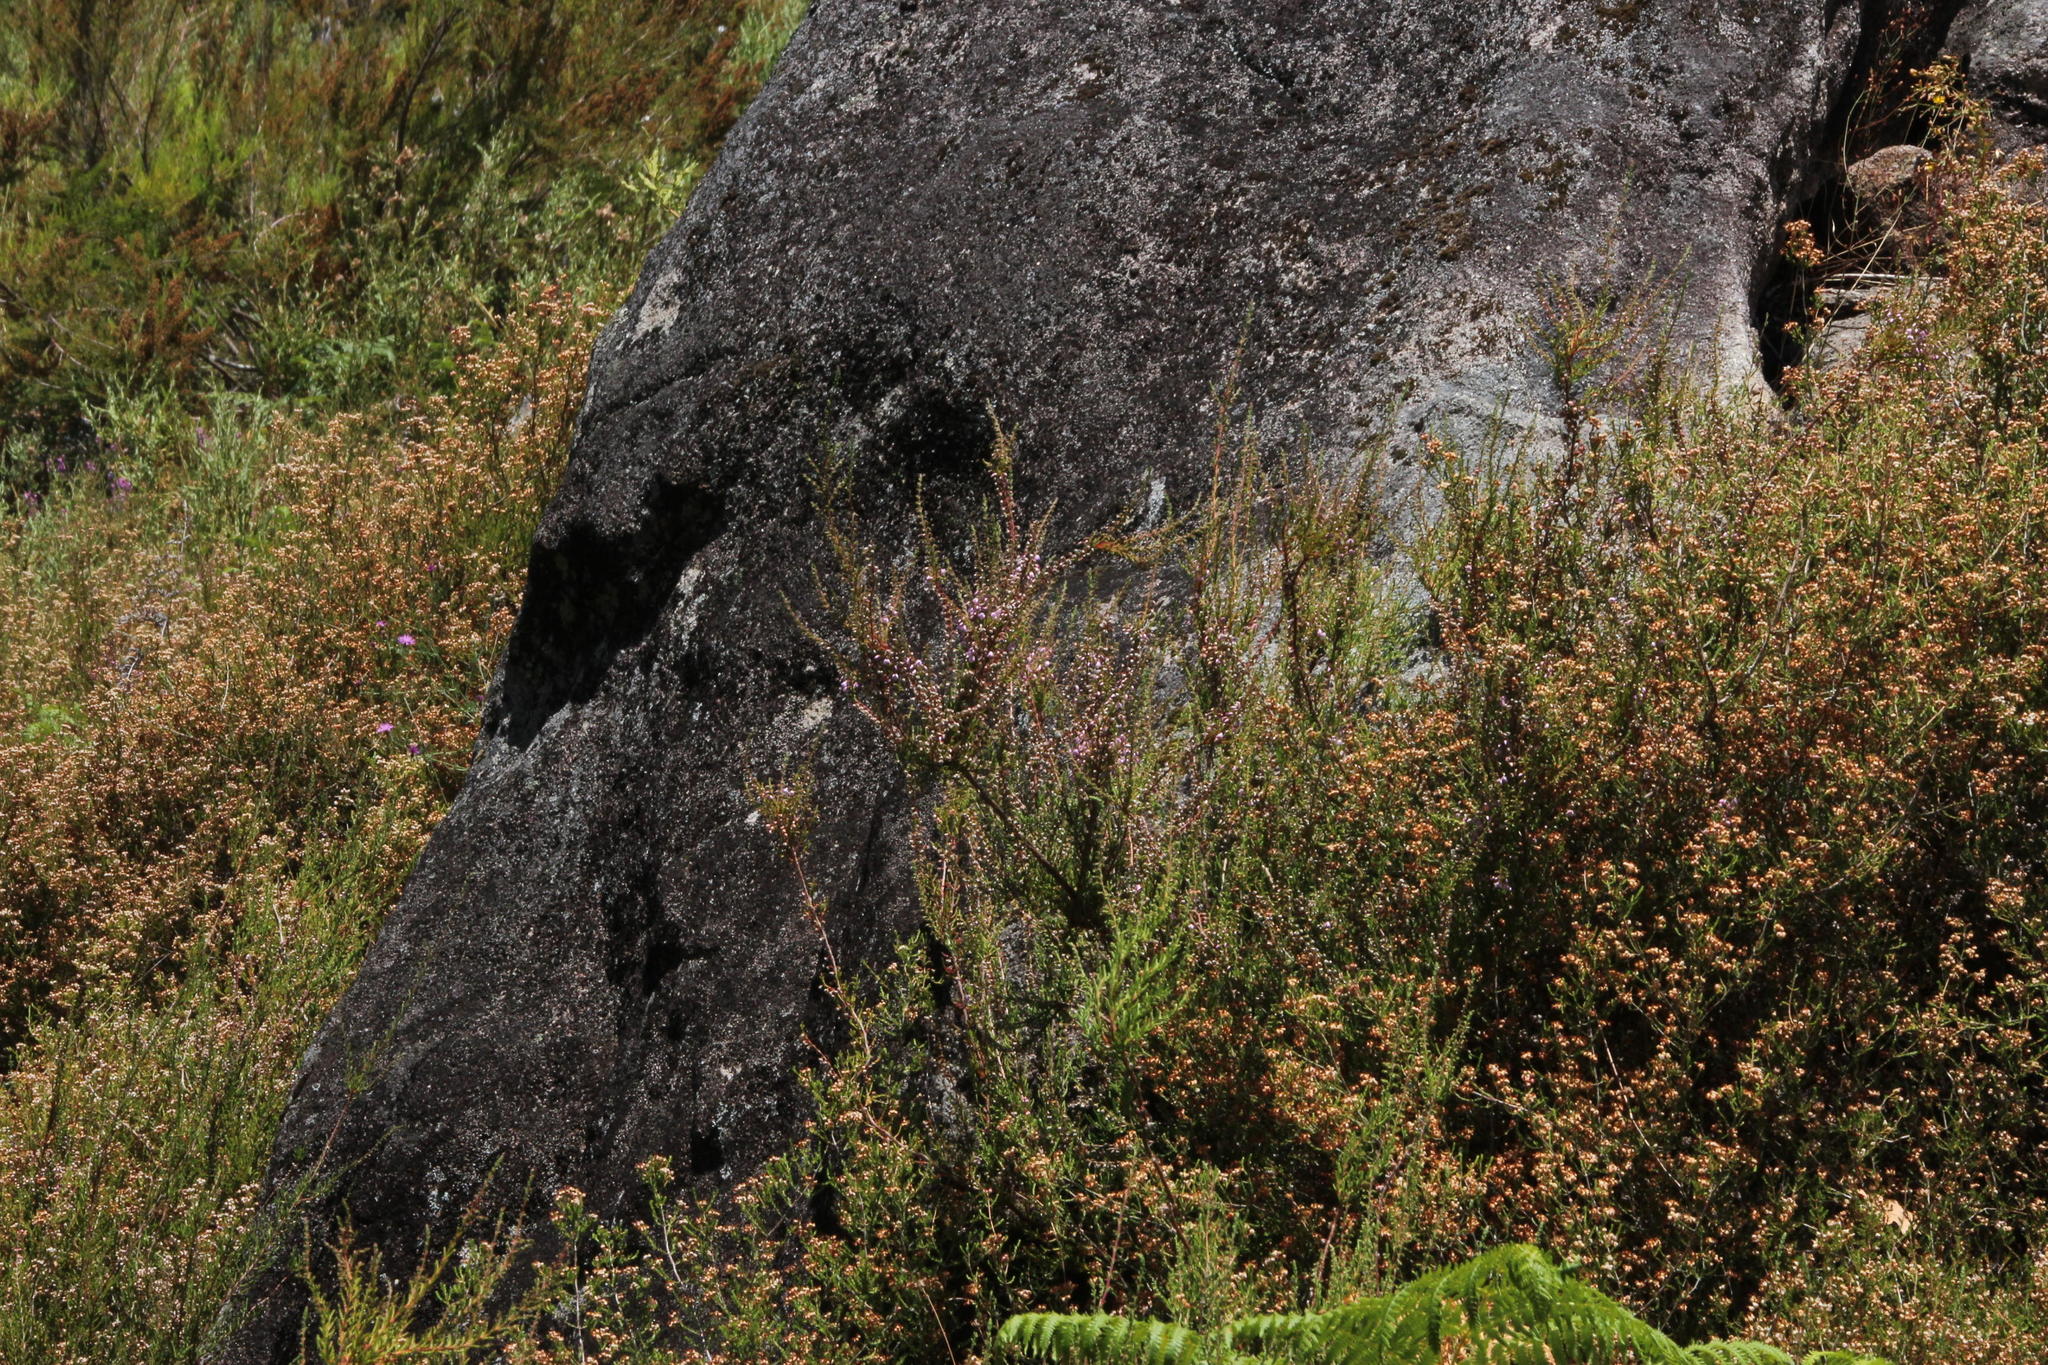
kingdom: Plantae
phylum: Tracheophyta
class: Magnoliopsida
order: Ericales
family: Ericaceae
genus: Calluna
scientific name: Calluna vulgaris
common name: Heather
